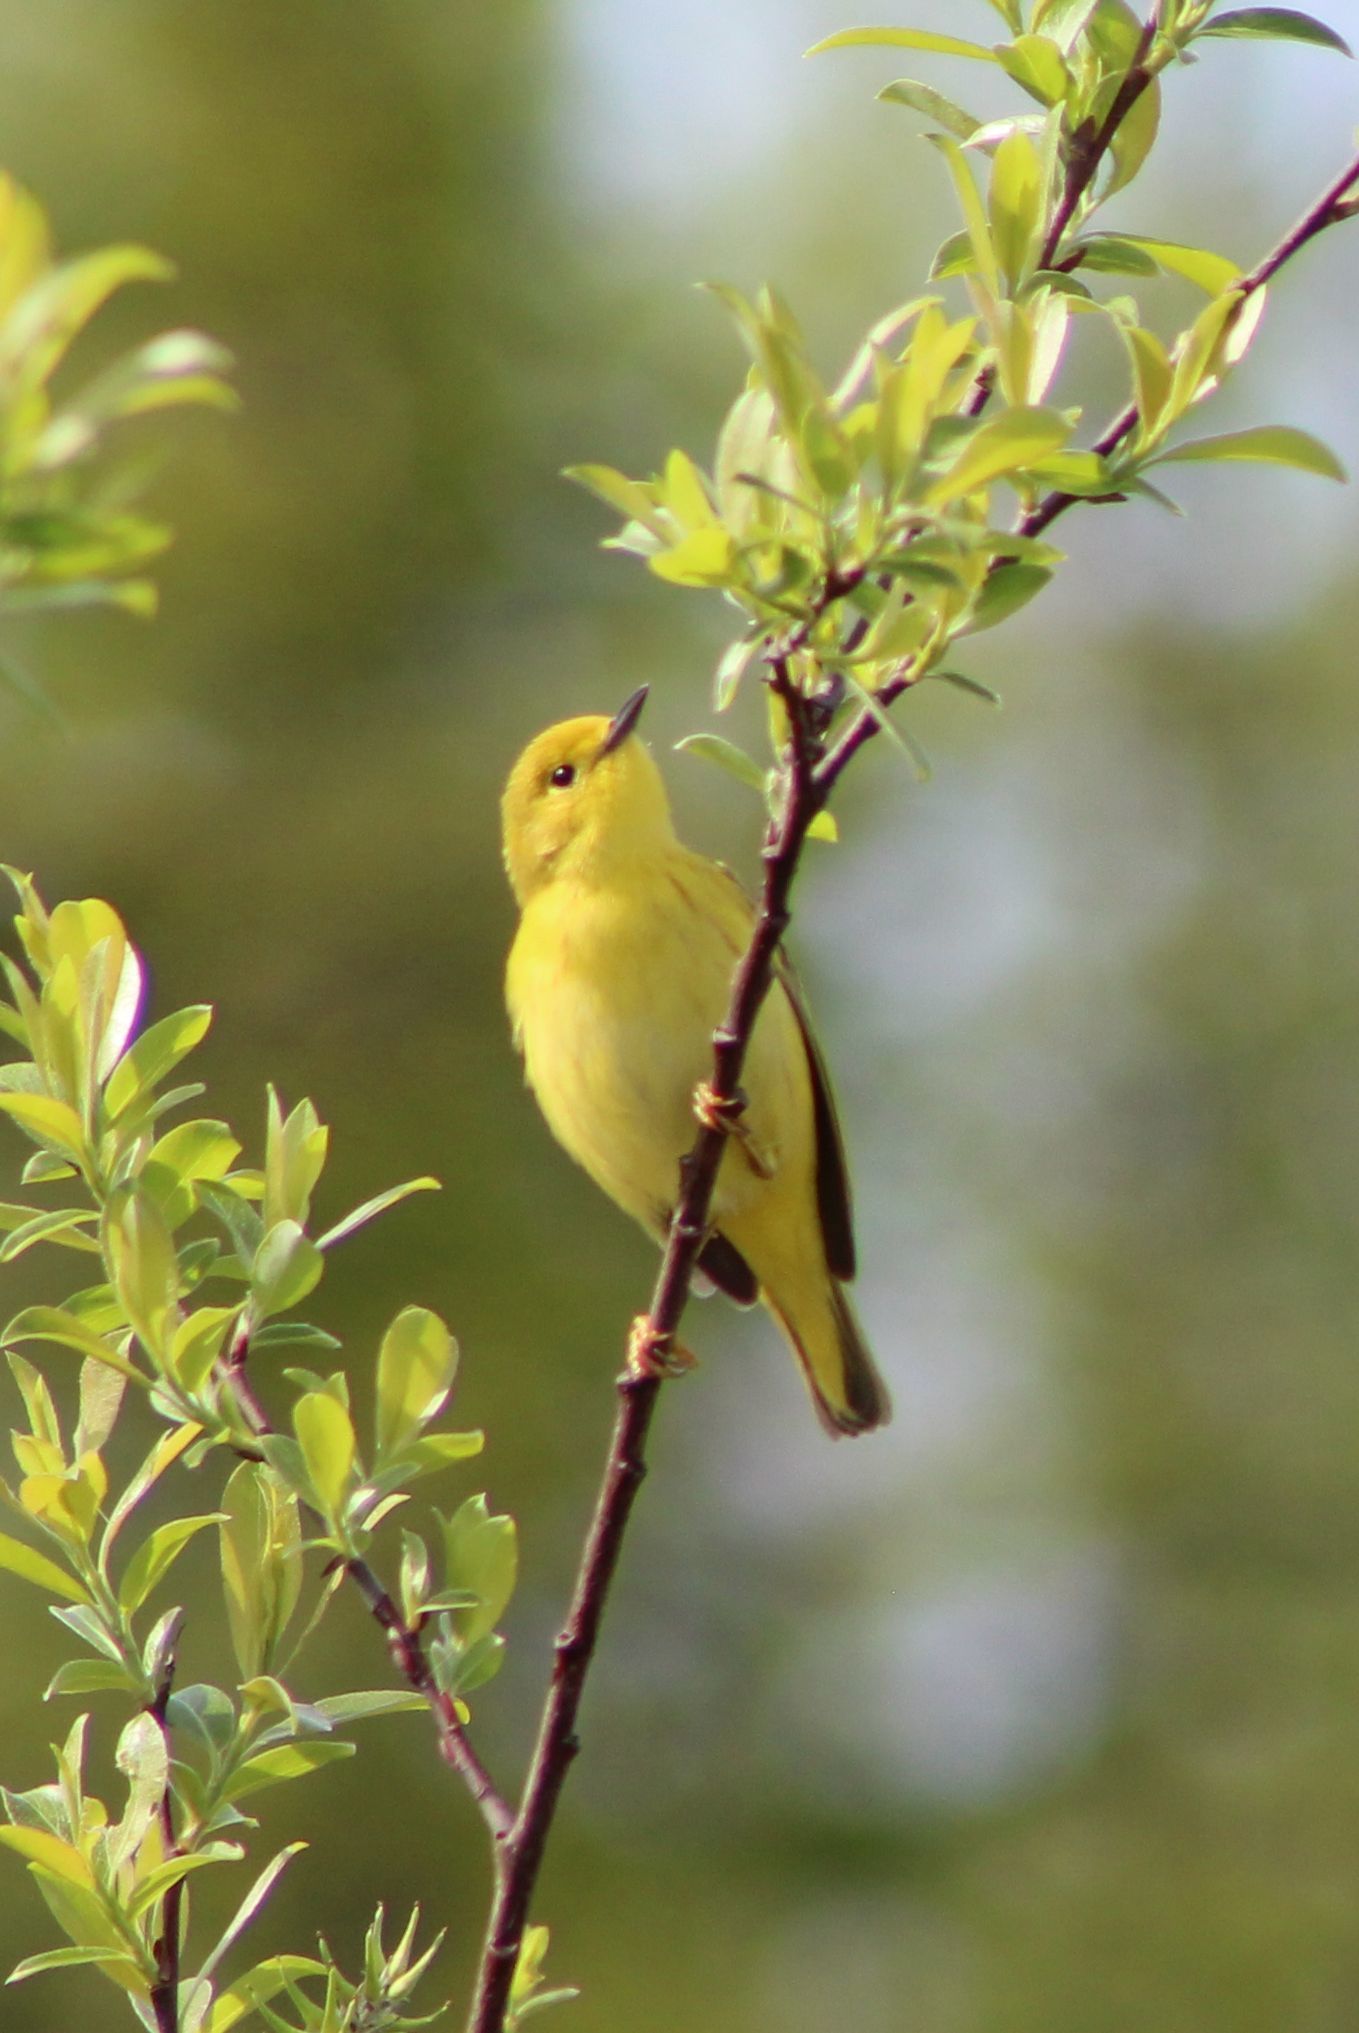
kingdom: Animalia
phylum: Chordata
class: Aves
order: Passeriformes
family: Parulidae
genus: Setophaga
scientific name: Setophaga petechia
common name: Yellow warbler
